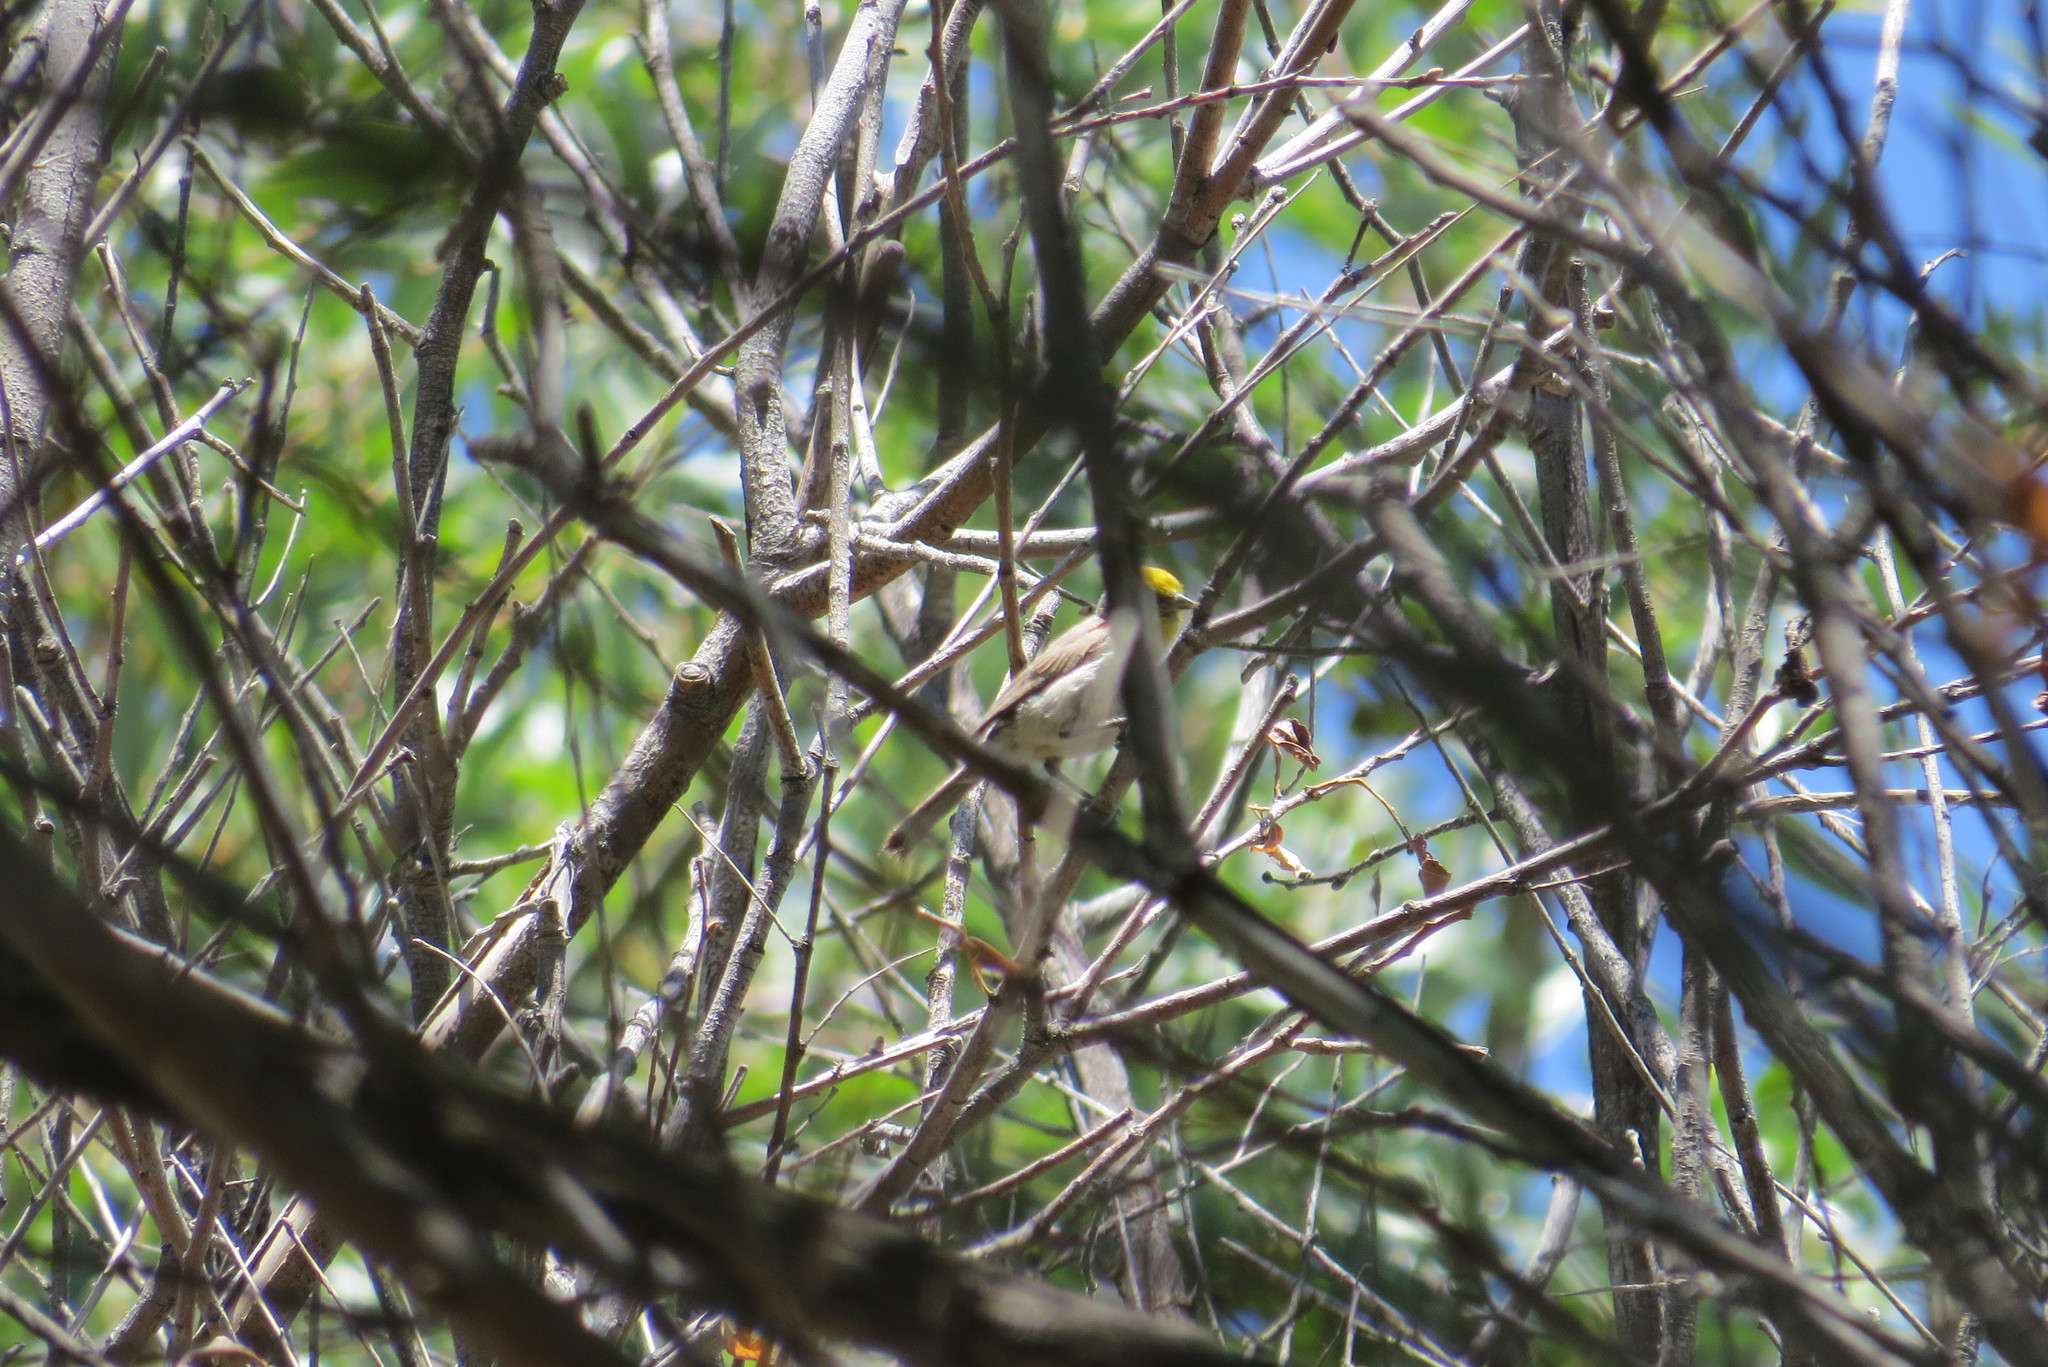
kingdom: Animalia
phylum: Chordata
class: Aves
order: Passeriformes
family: Remizidae
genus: Auriparus
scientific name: Auriparus flaviceps
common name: Verdin
